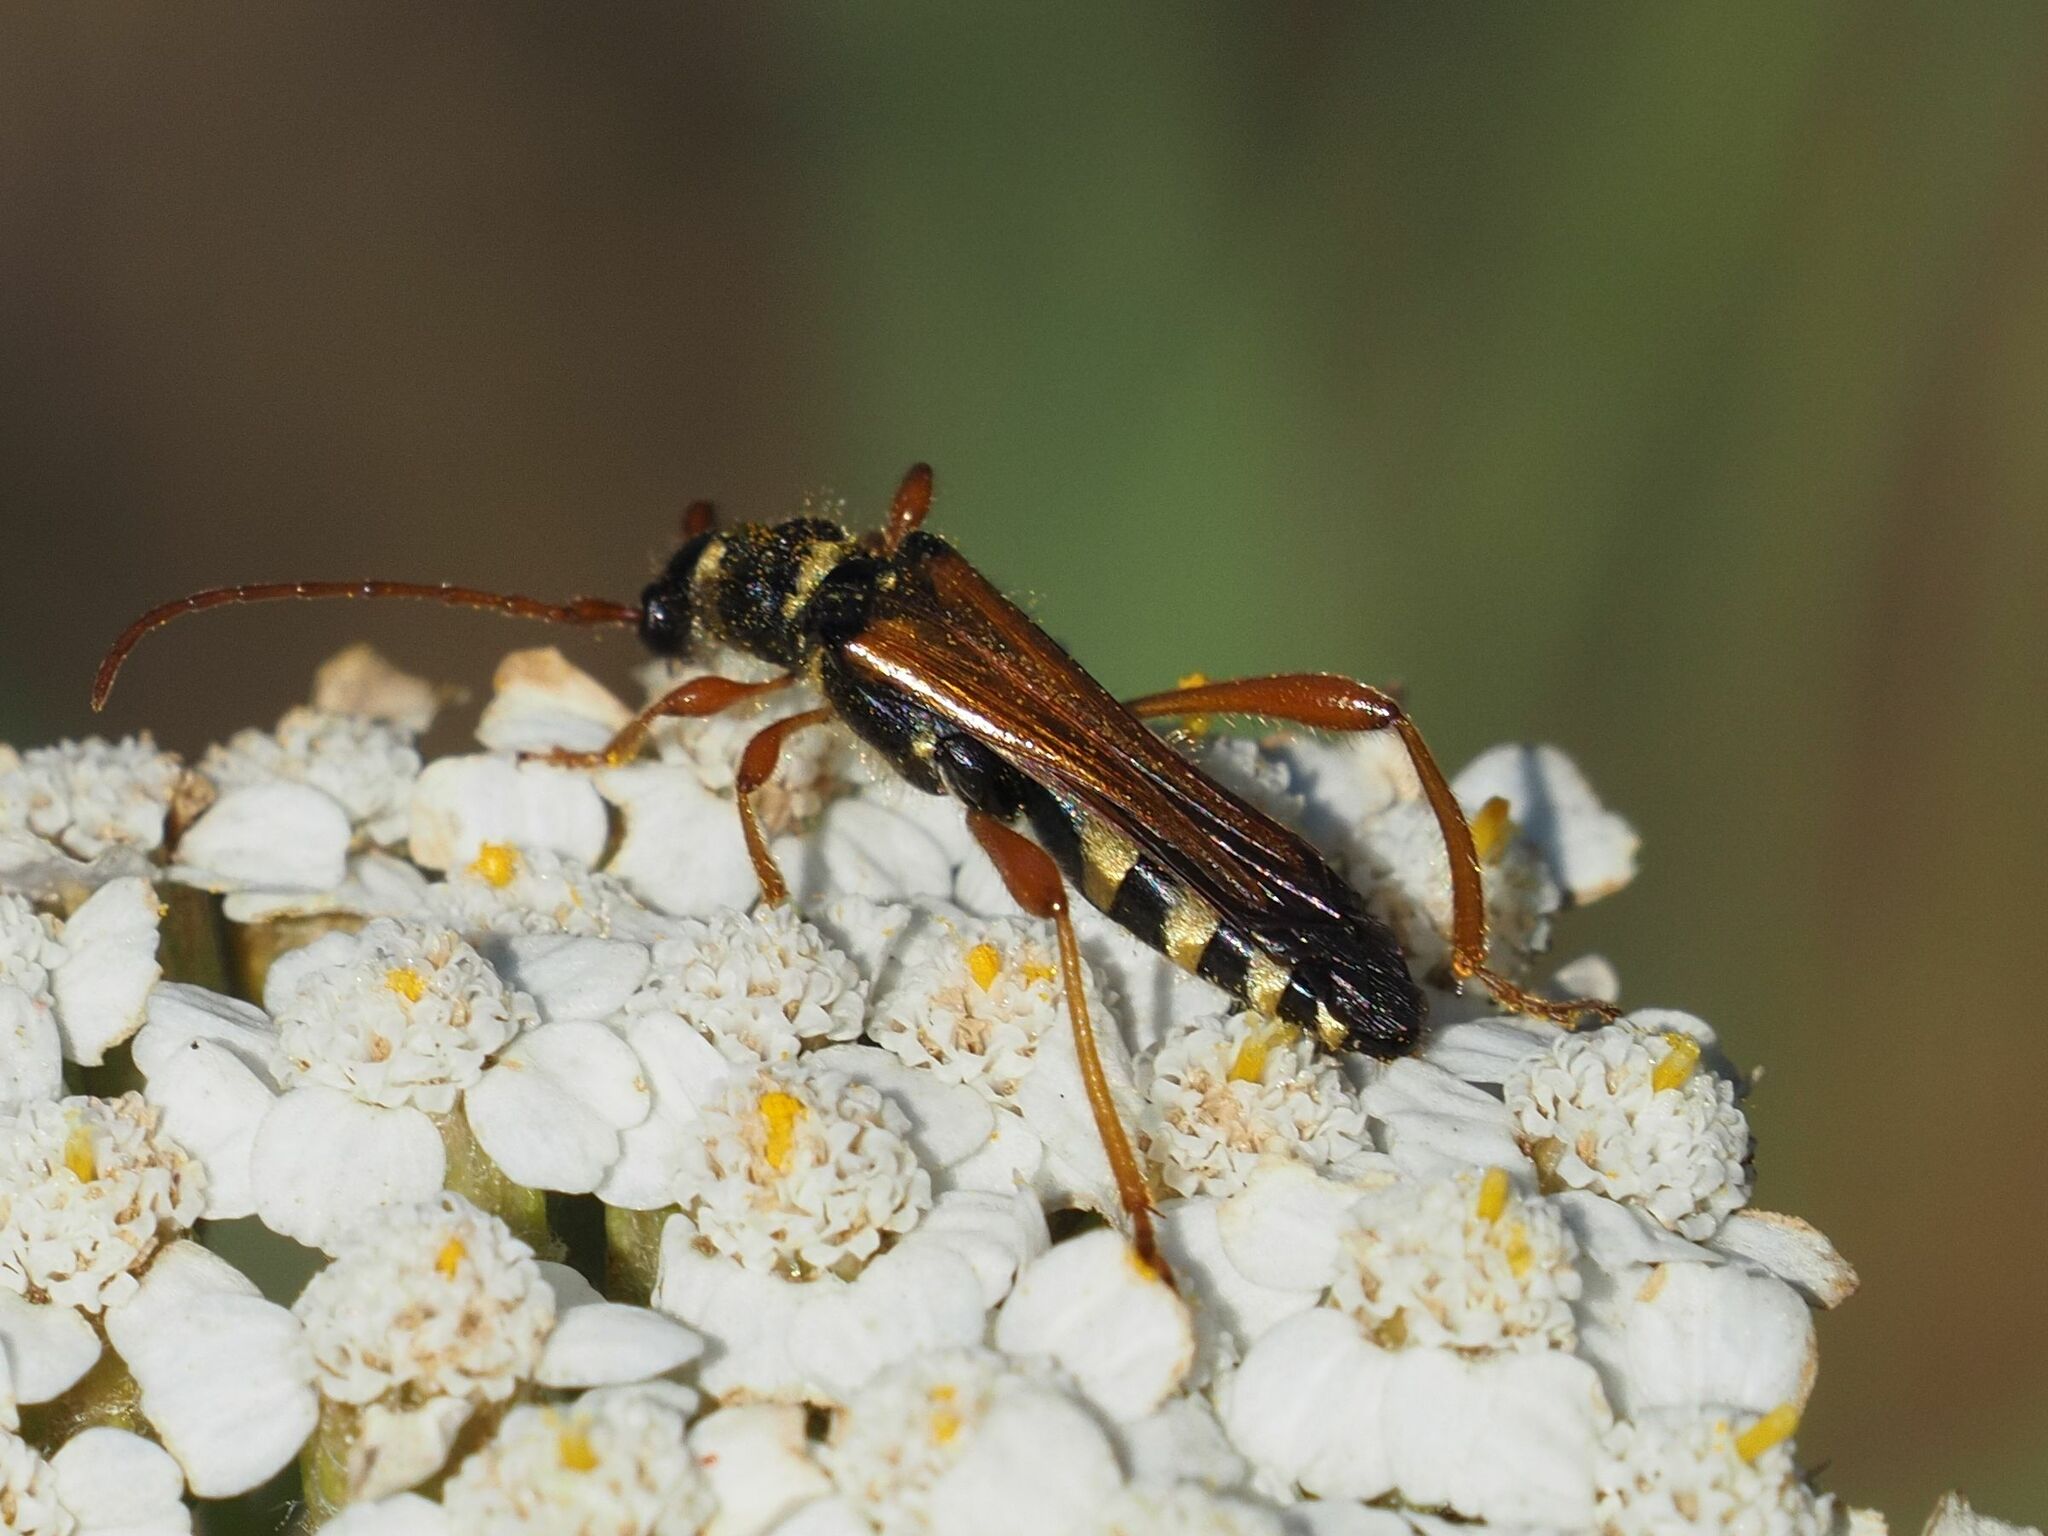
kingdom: Animalia
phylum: Arthropoda
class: Insecta
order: Coleoptera
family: Cerambycidae
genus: Stenopterus
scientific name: Stenopterus flavicornis
